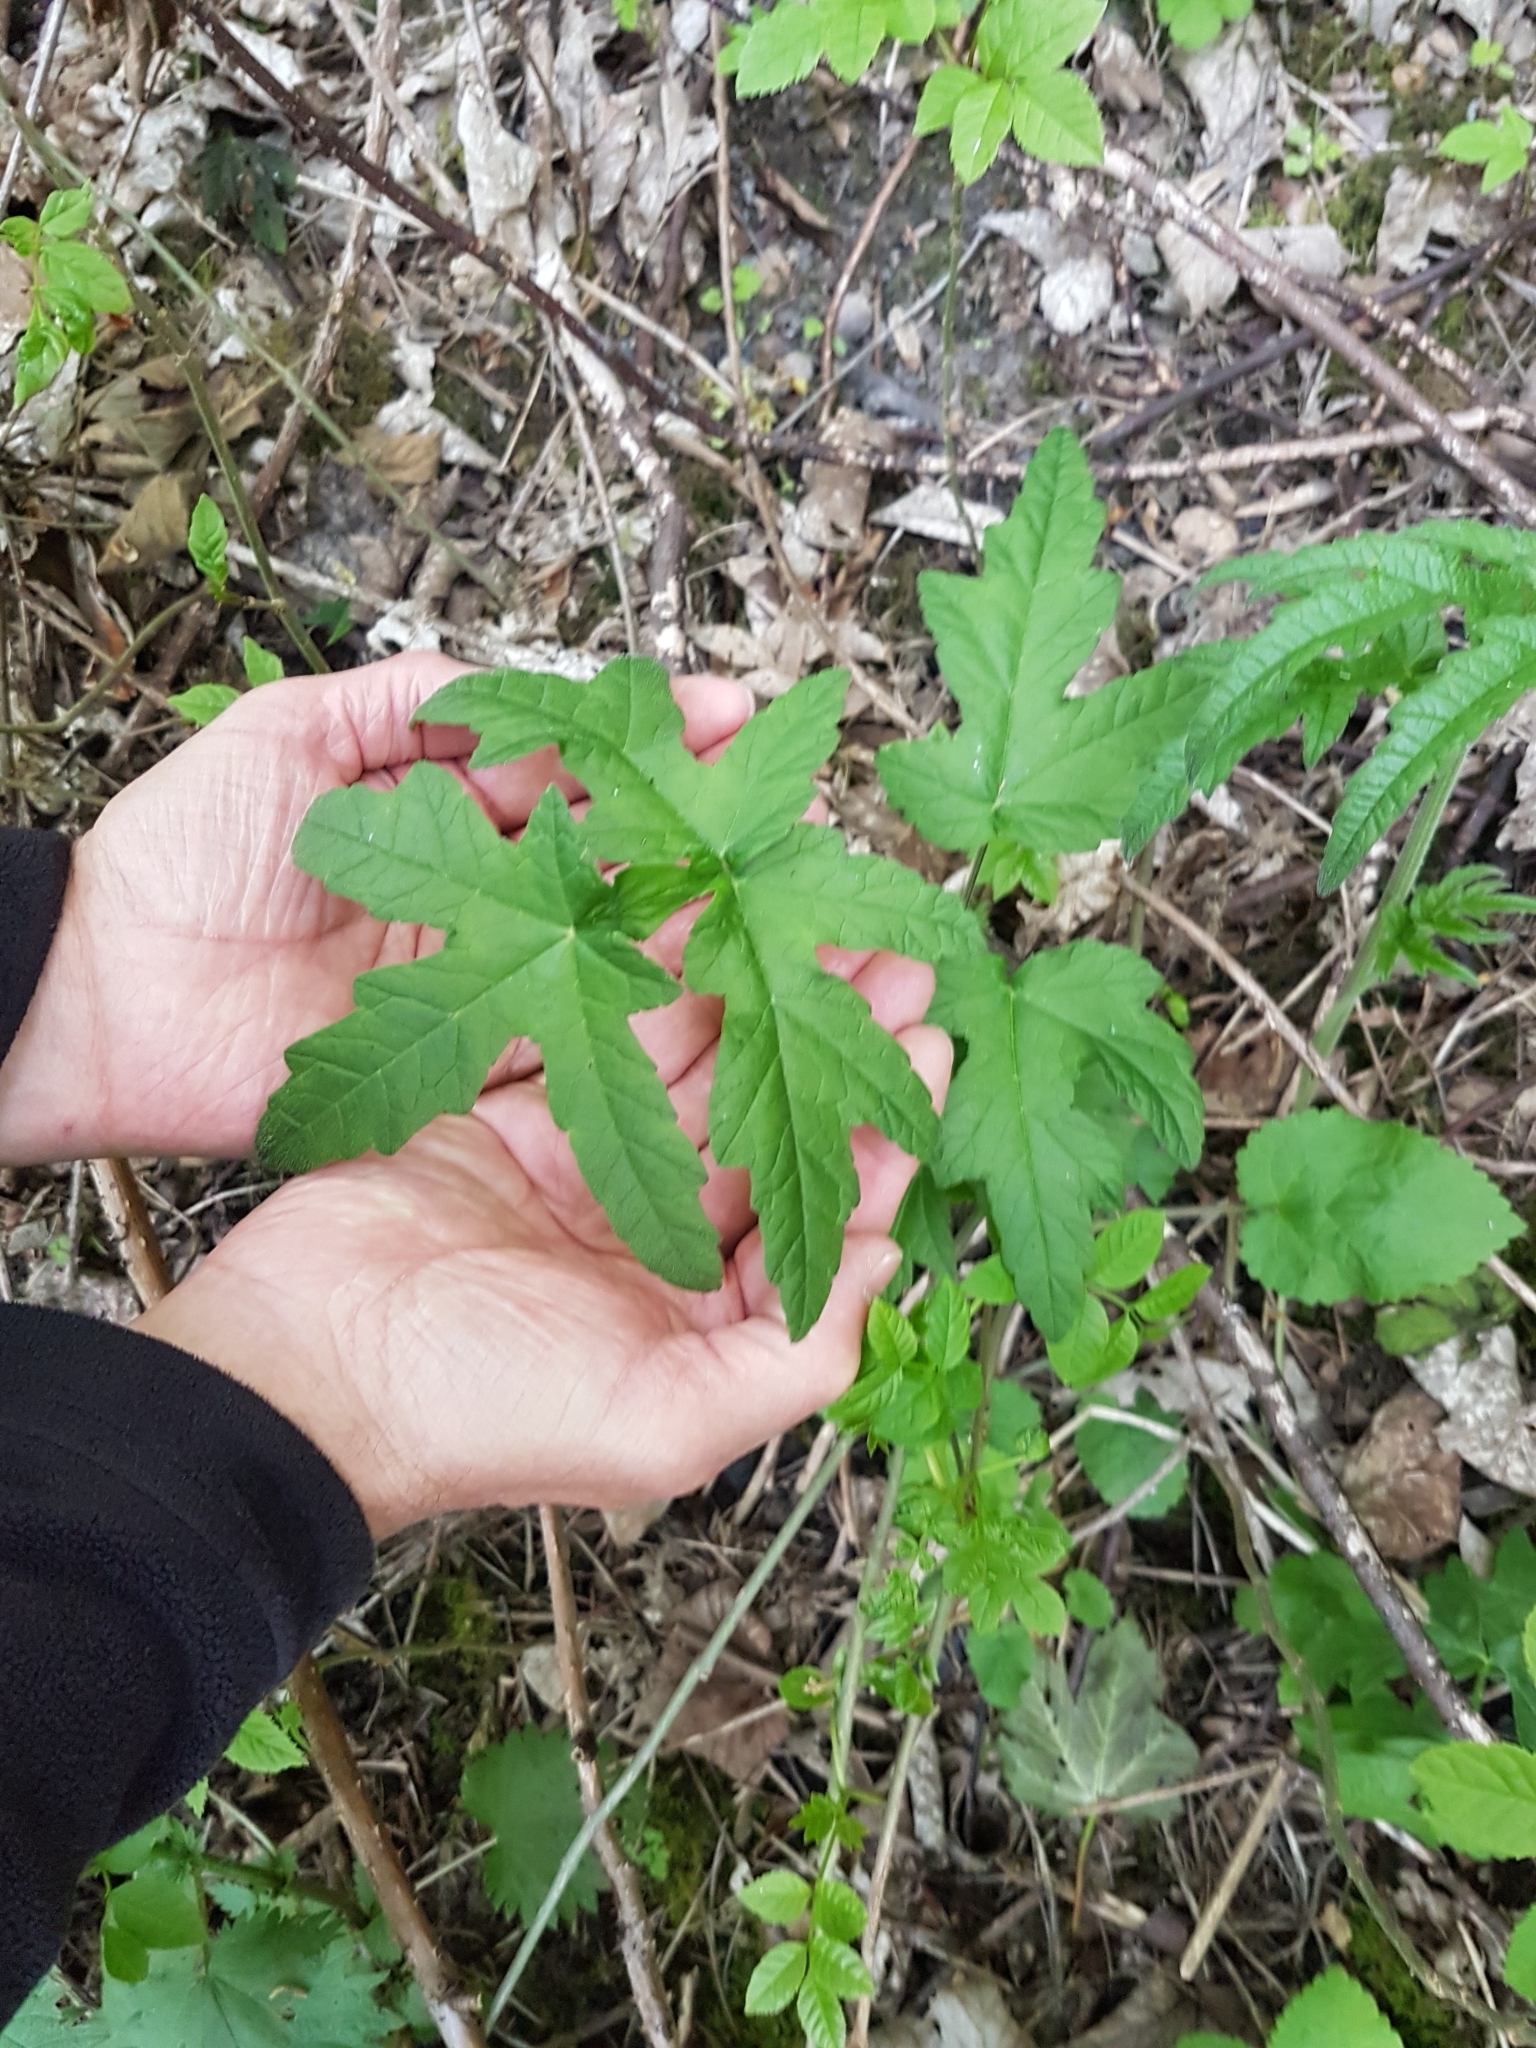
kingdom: Plantae
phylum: Tracheophyta
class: Magnoliopsida
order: Apiales
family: Apiaceae
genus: Heracleum
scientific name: Heracleum sphondylium
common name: Hogweed
